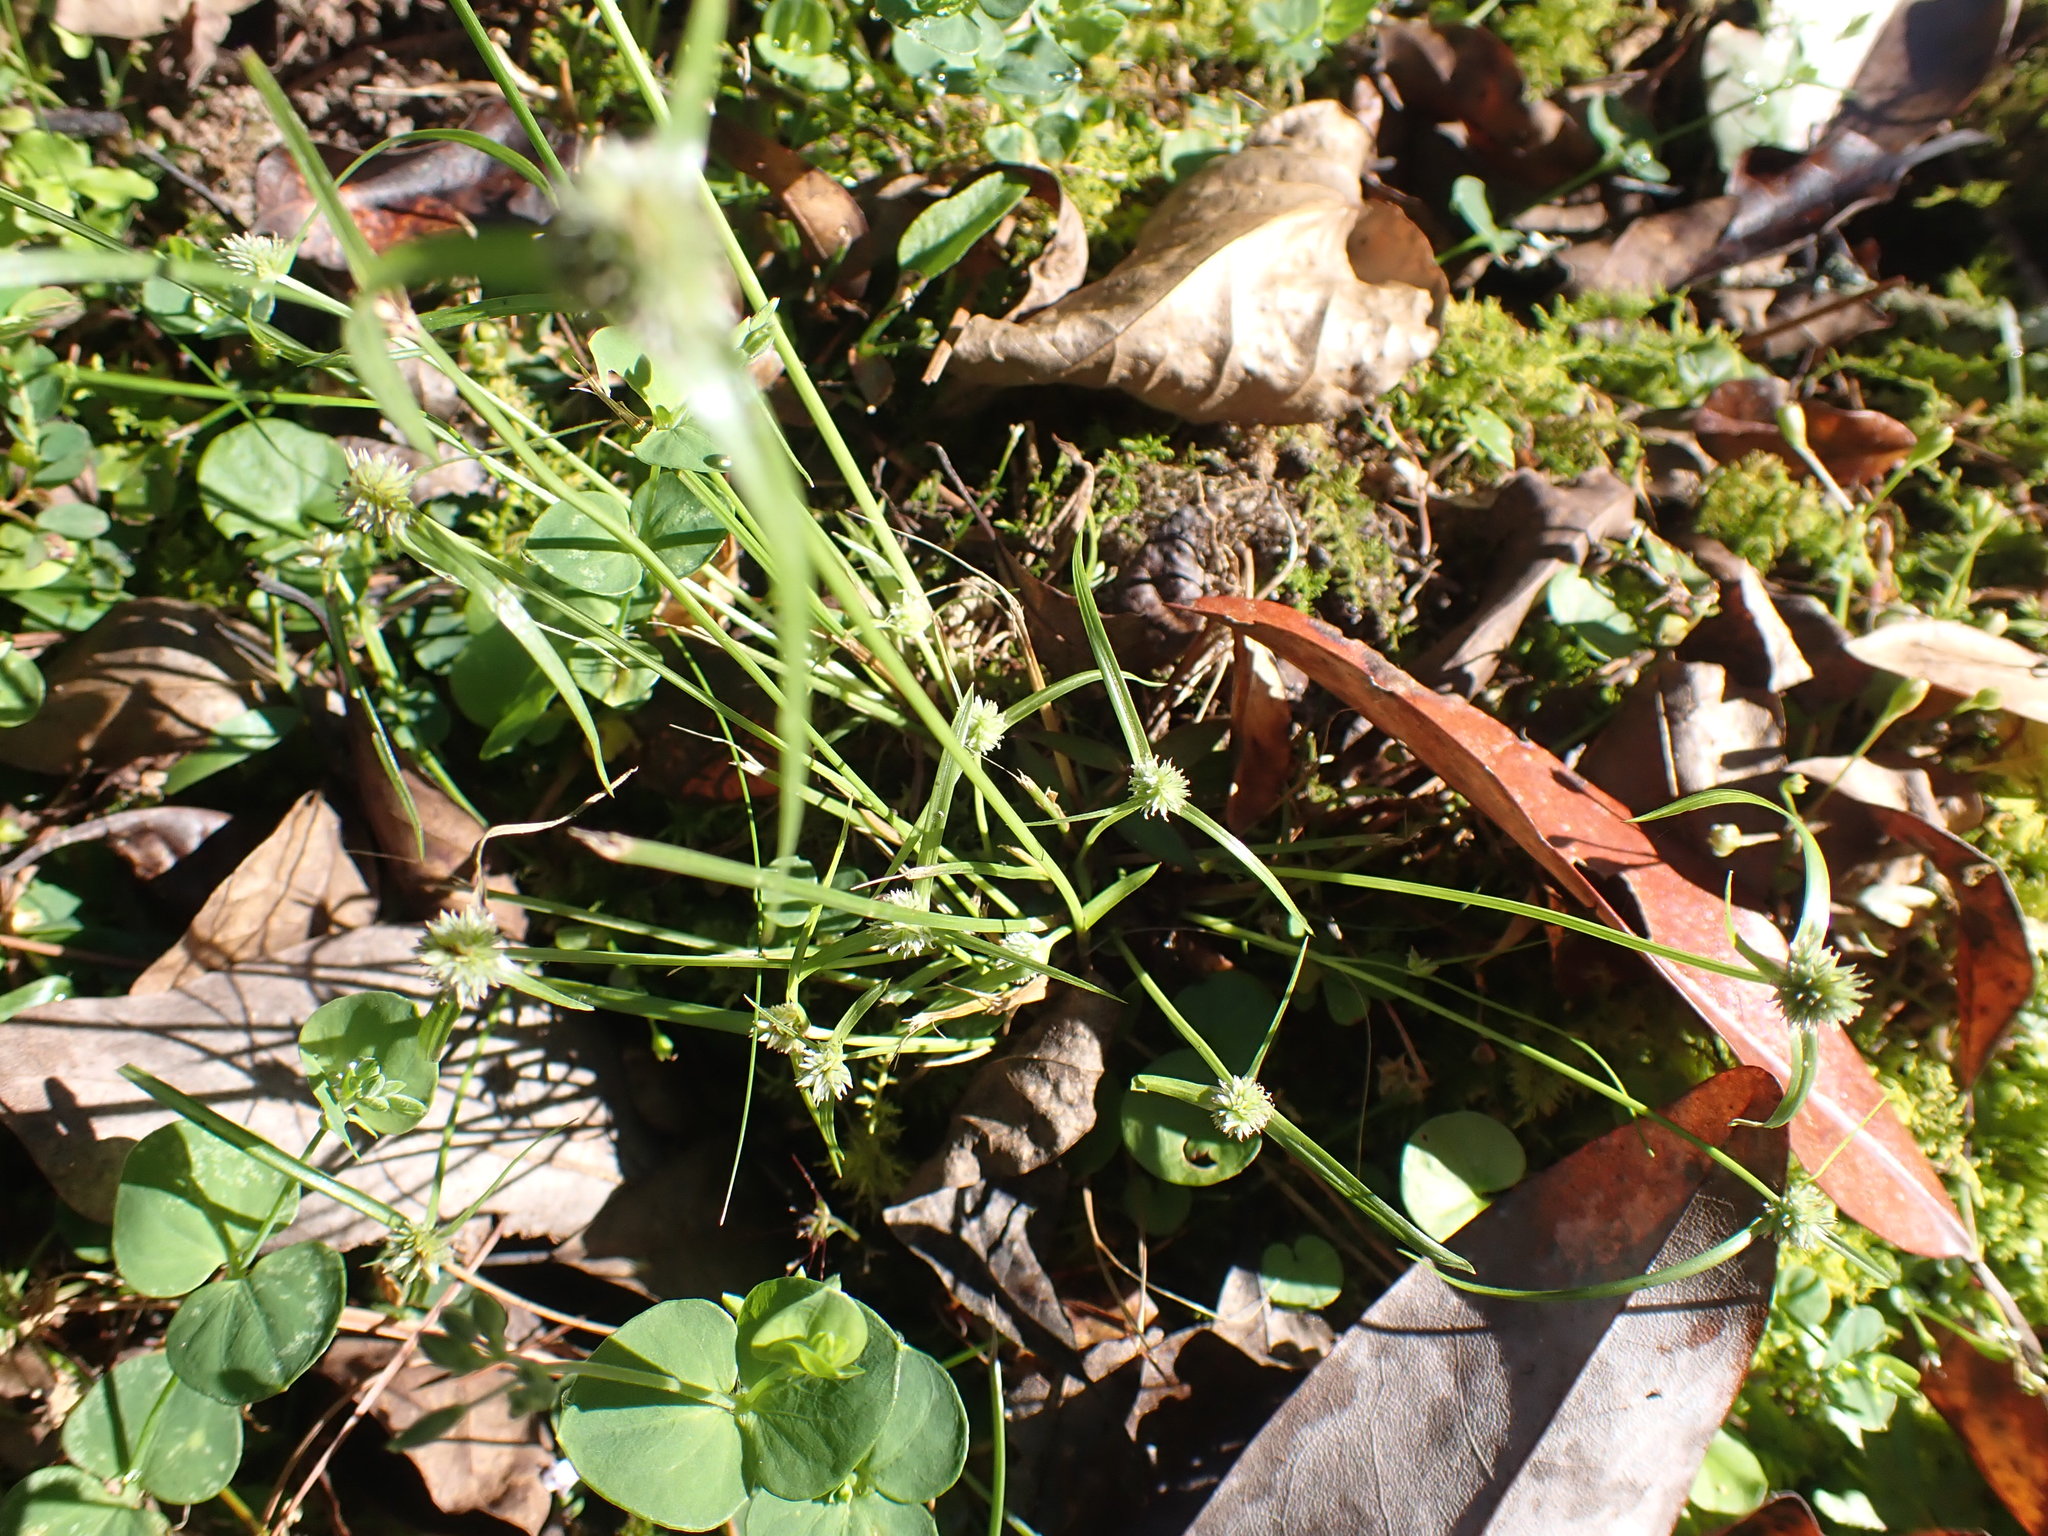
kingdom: Plantae
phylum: Tracheophyta
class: Liliopsida
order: Poales
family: Cyperaceae
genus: Cyperus
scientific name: Cyperus sesquiflorus
